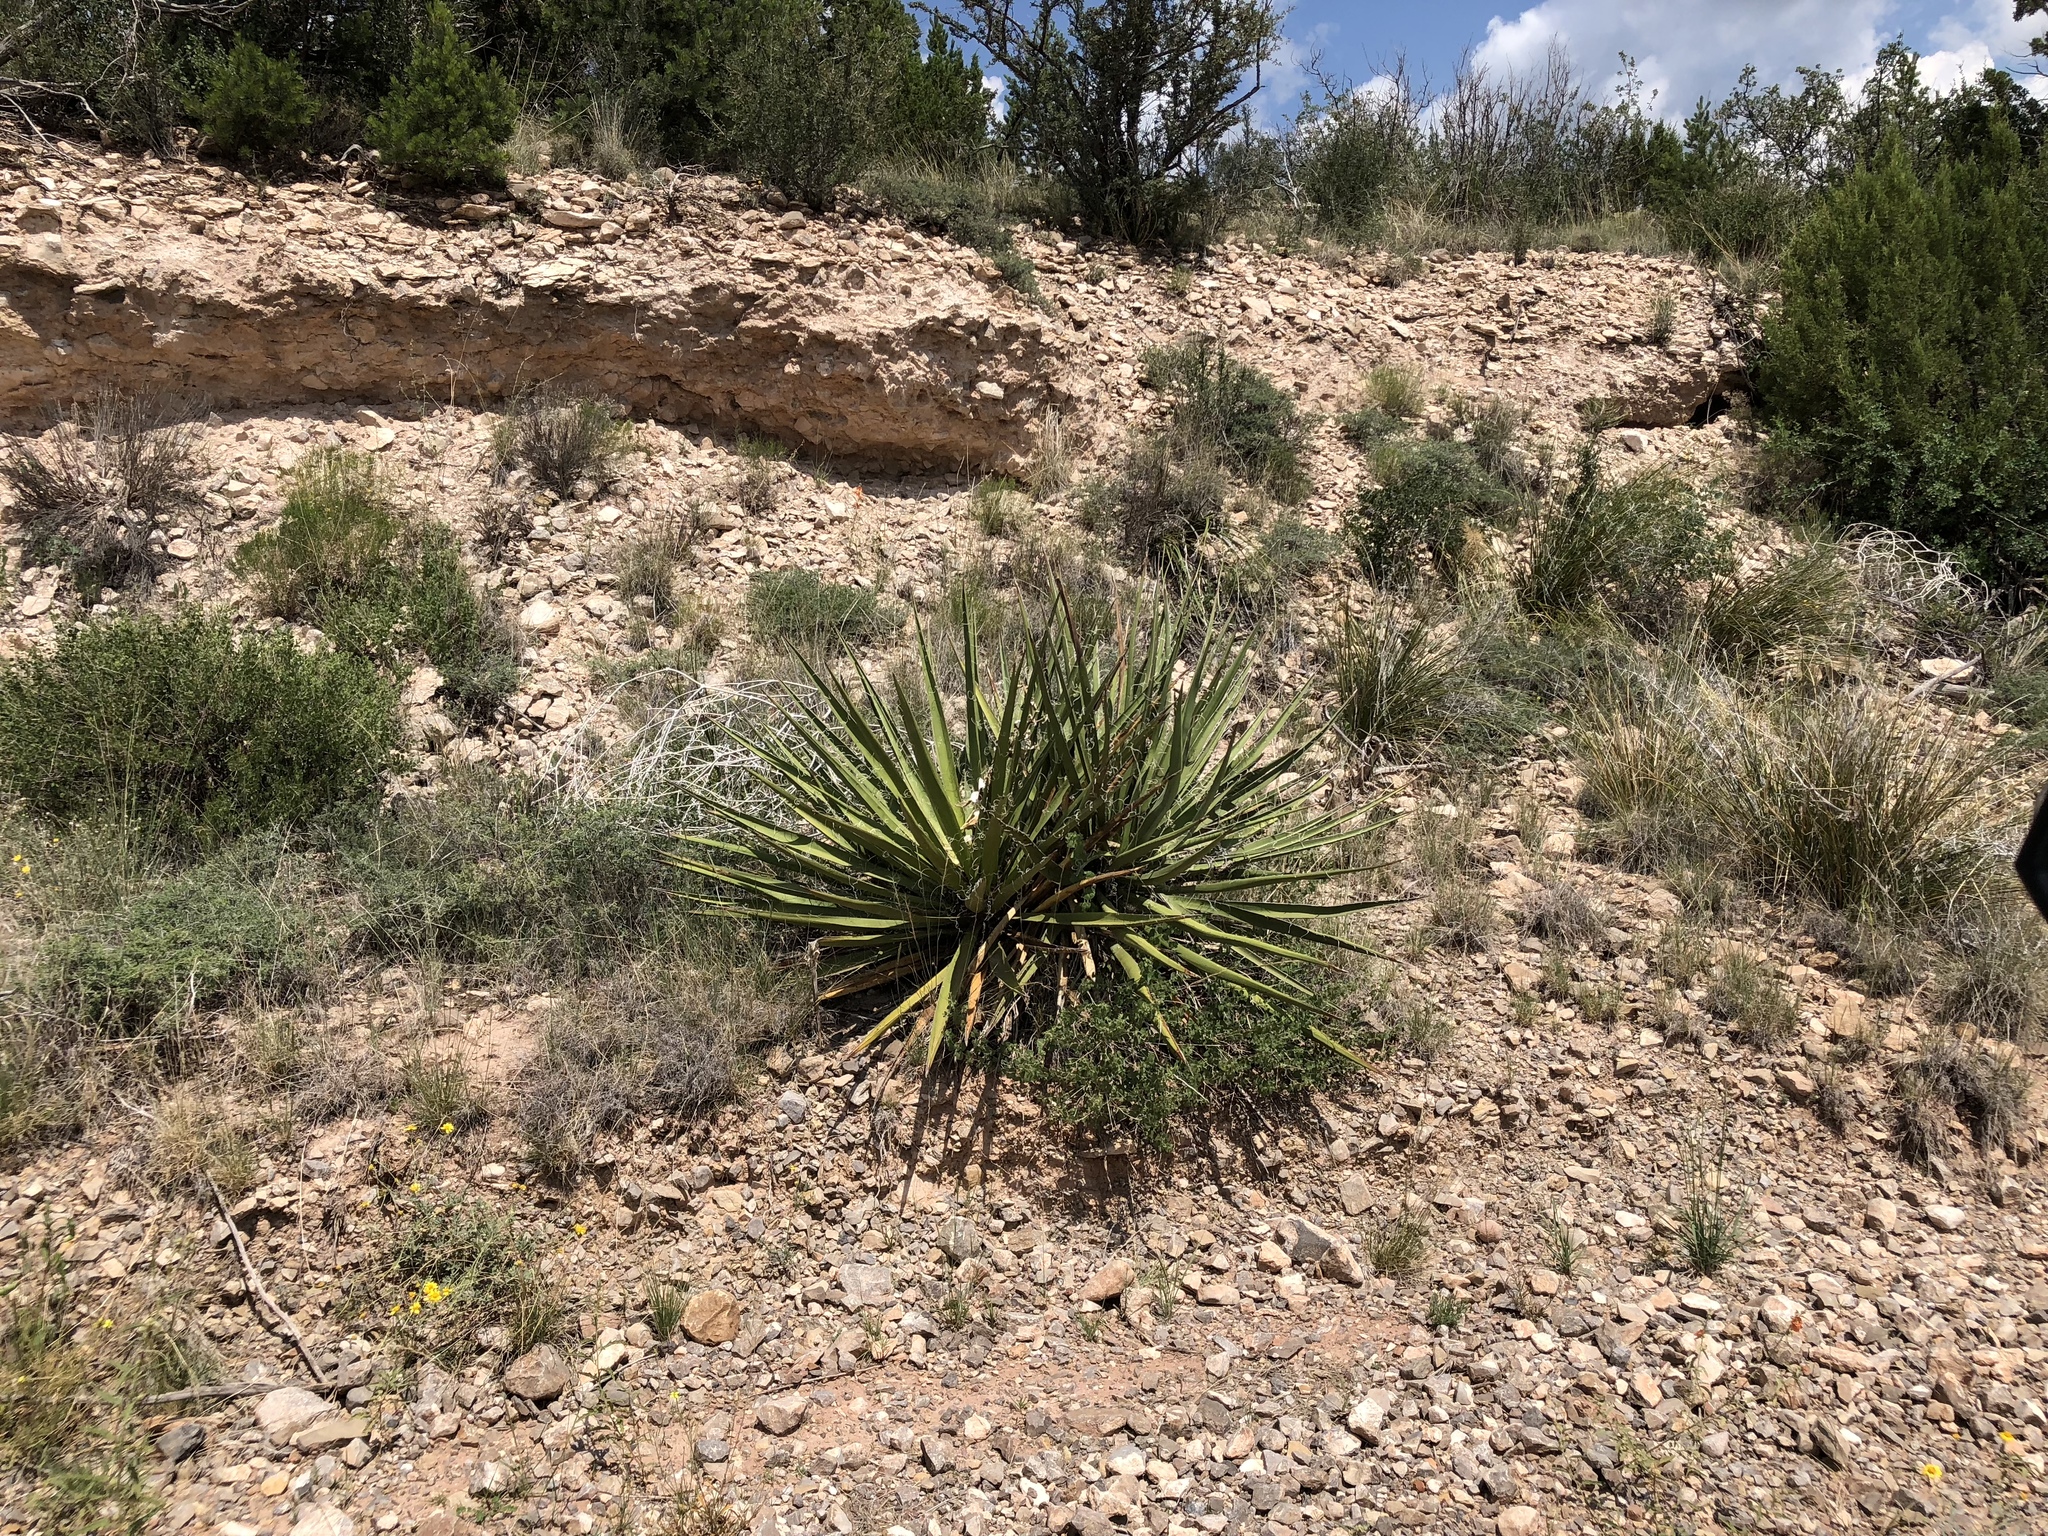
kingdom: Plantae
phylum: Tracheophyta
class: Liliopsida
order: Asparagales
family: Asparagaceae
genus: Yucca
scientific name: Yucca baccata
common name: Banana yucca
